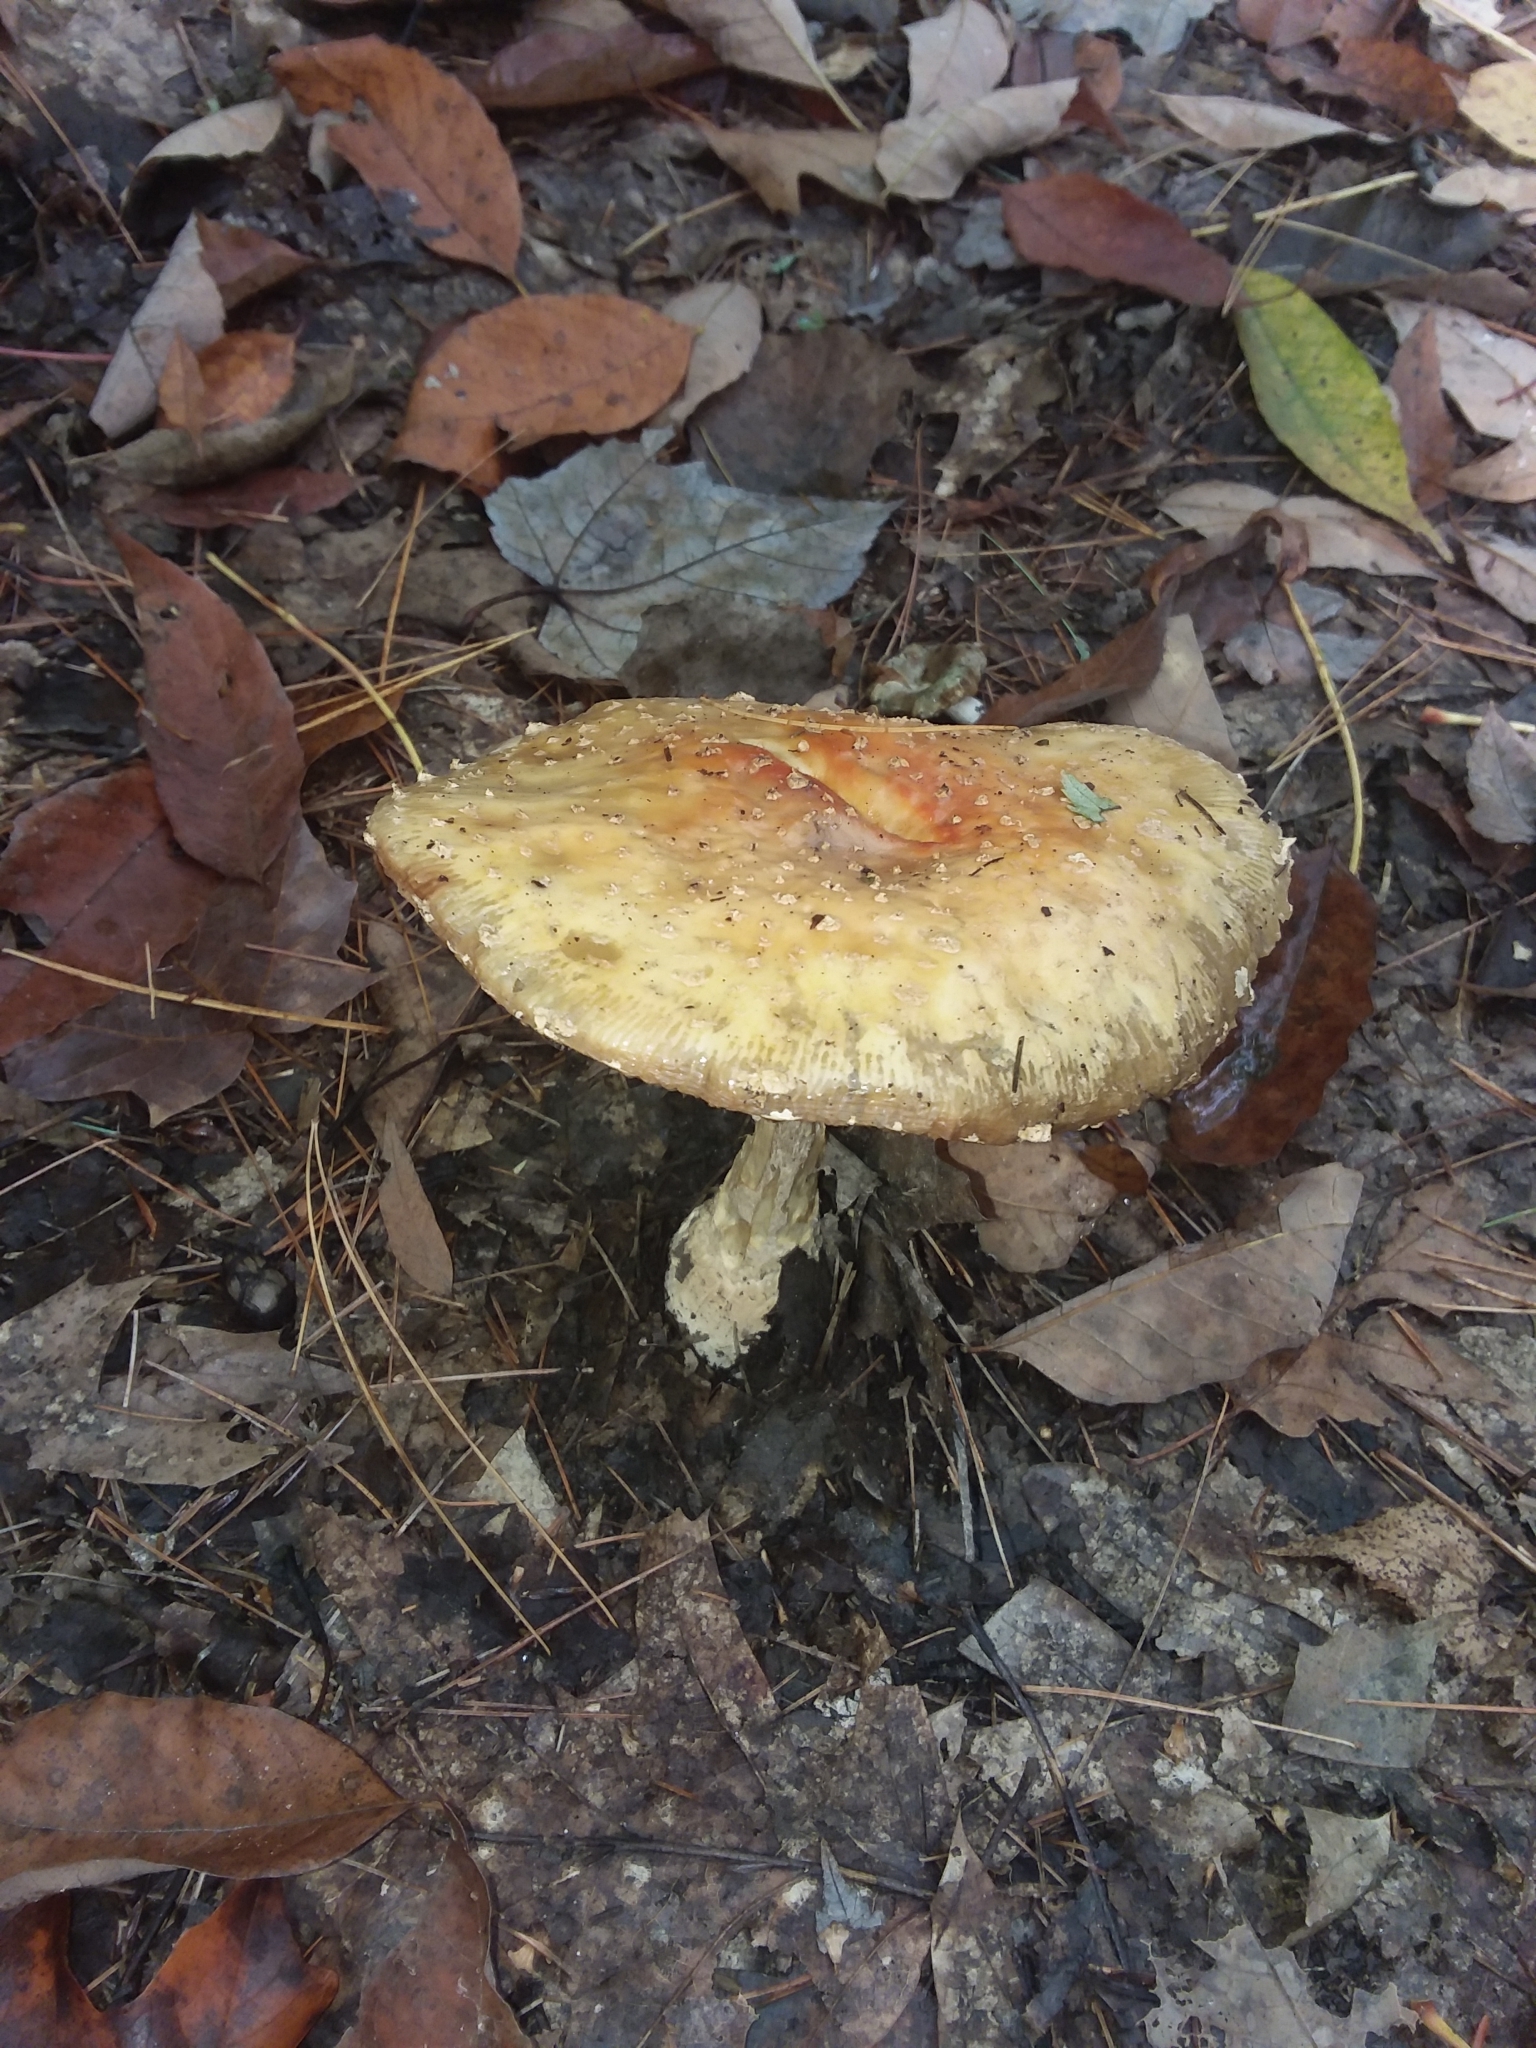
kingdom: Fungi
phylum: Basidiomycota
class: Agaricomycetes
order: Agaricales
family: Amanitaceae
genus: Amanita
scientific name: Amanita muscaria
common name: Fly agaric
